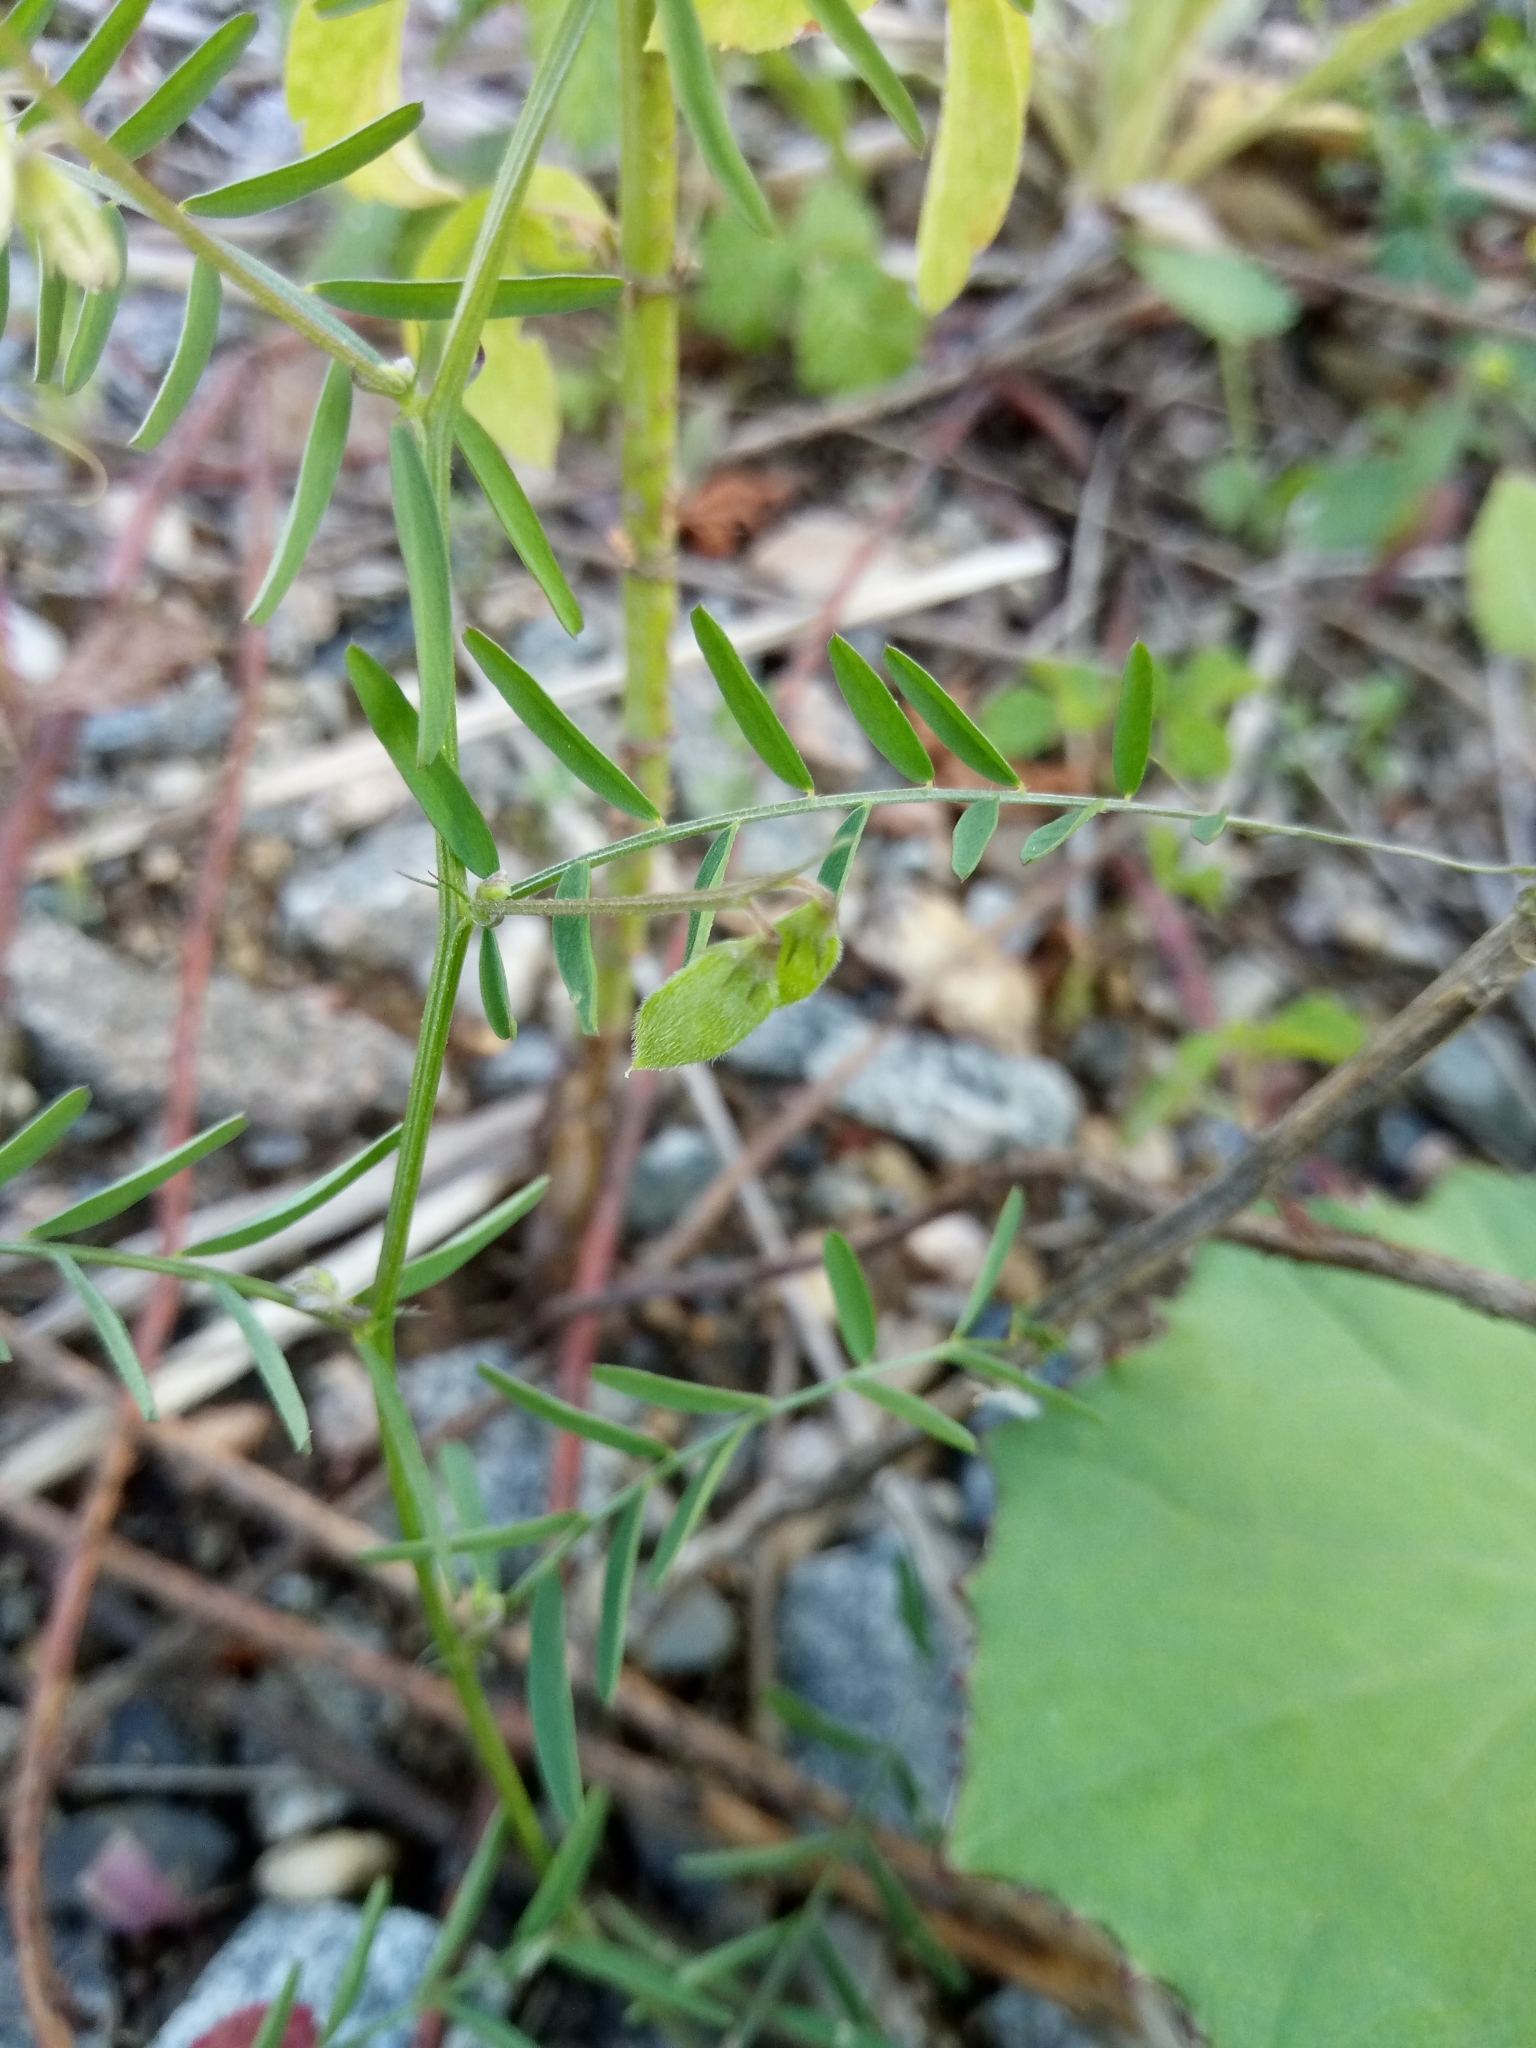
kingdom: Plantae
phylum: Tracheophyta
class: Magnoliopsida
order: Fabales
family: Fabaceae
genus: Vicia
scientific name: Vicia hirsuta
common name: Tiny vetch
